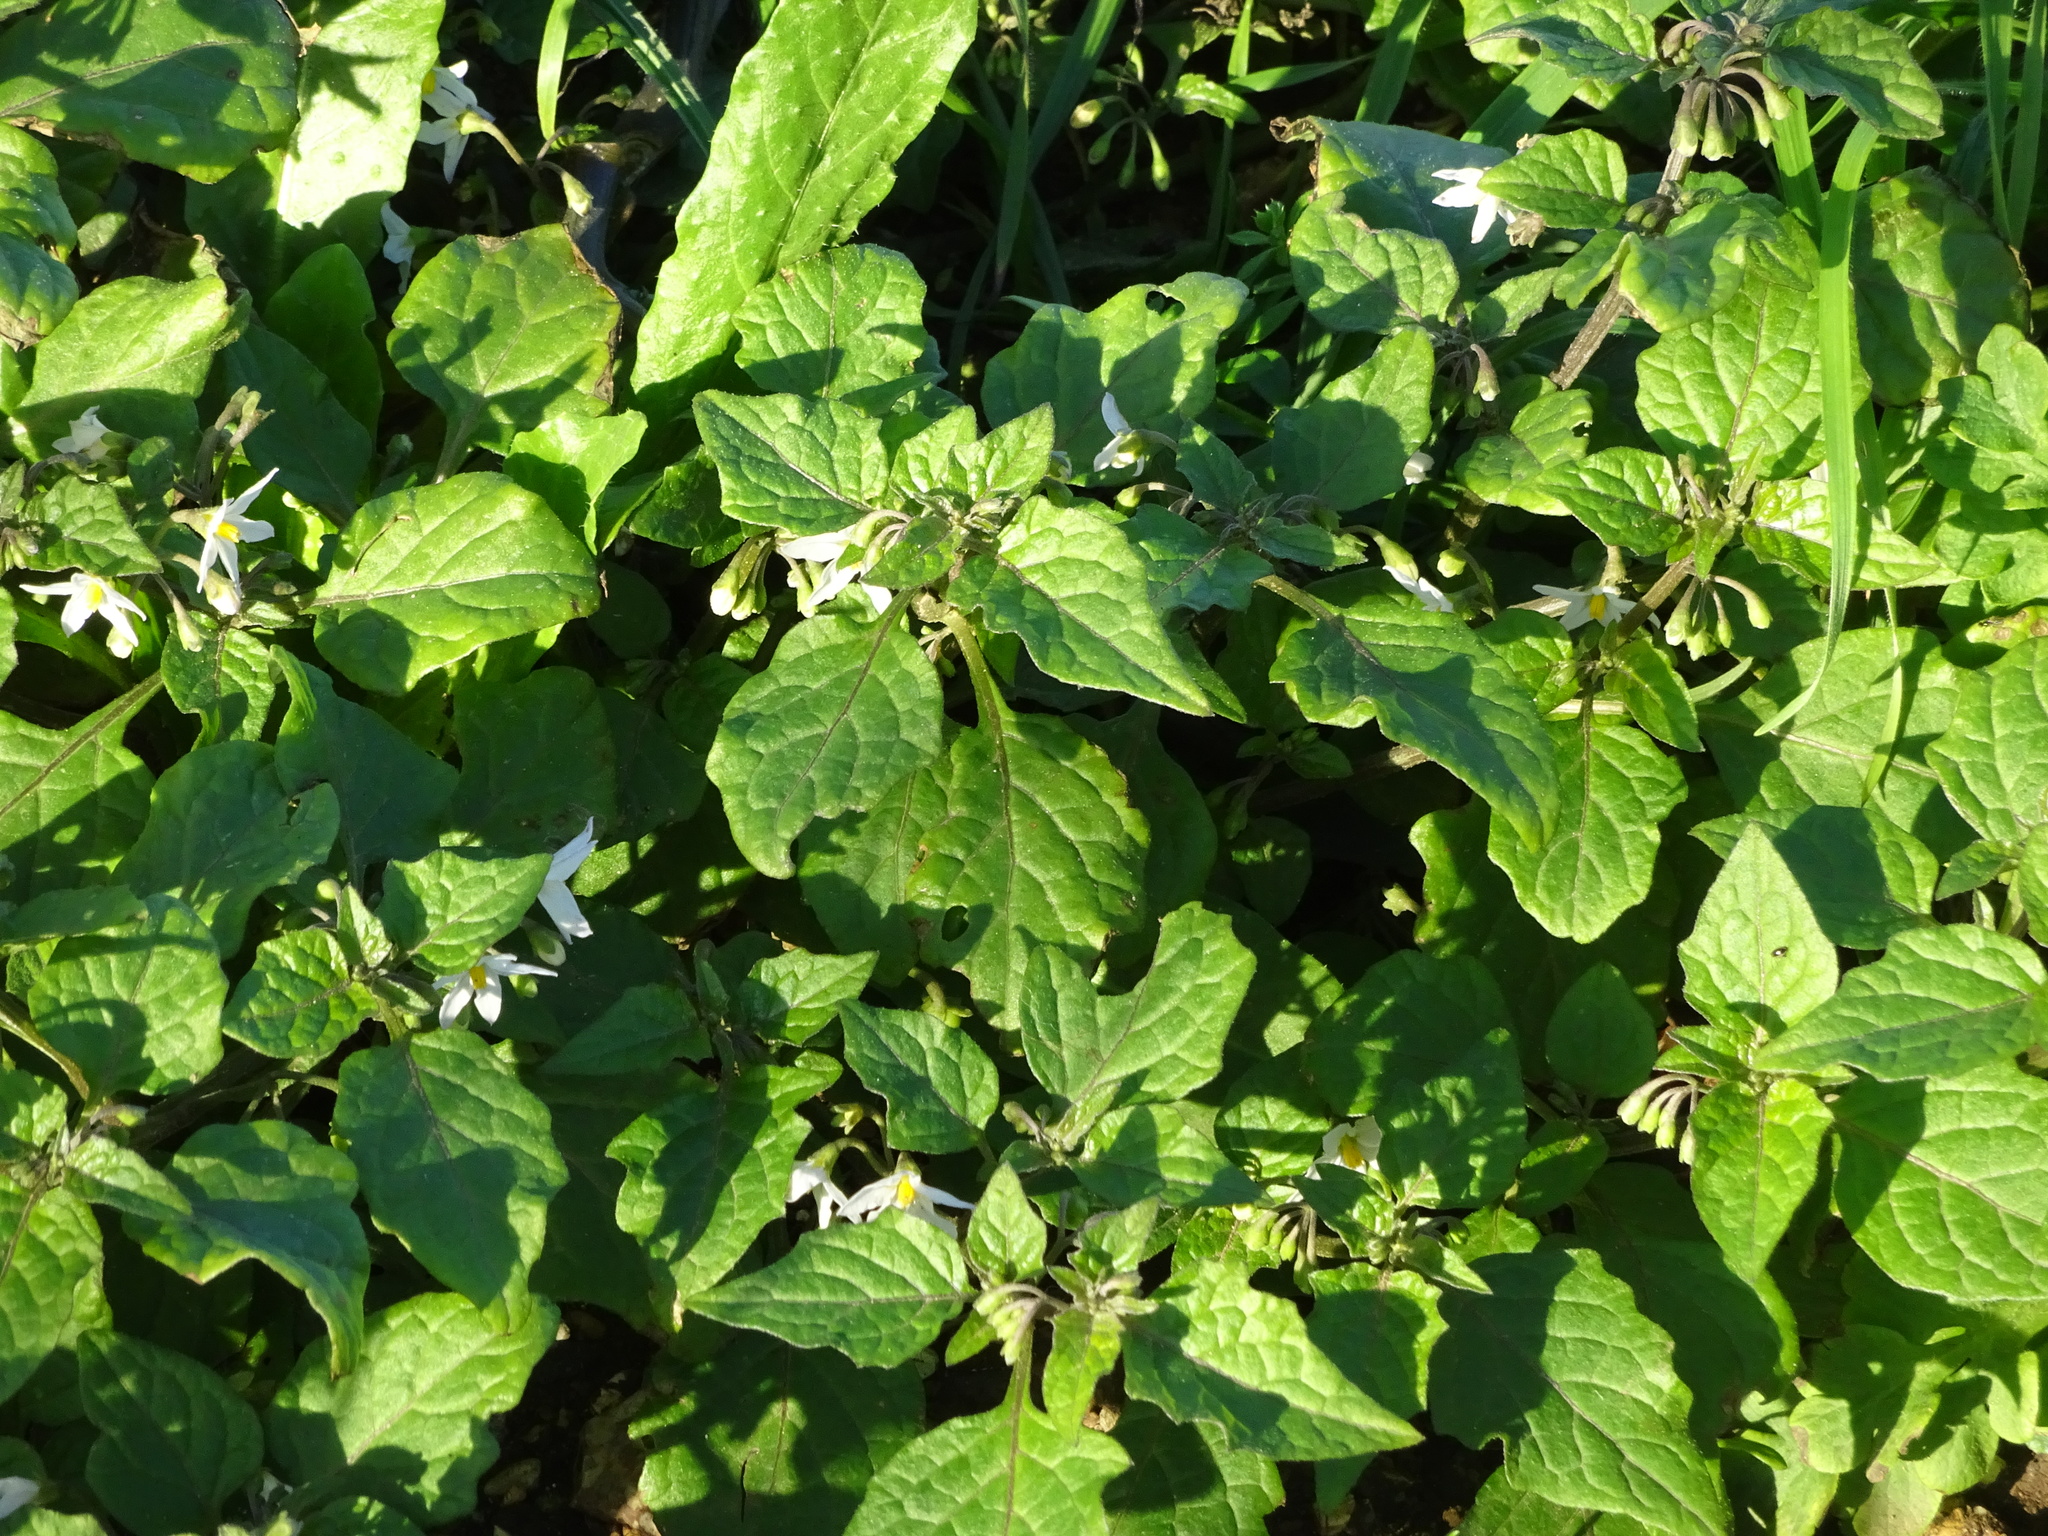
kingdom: Plantae
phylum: Tracheophyta
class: Magnoliopsida
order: Solanales
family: Solanaceae
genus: Solanum
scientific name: Solanum nigrum
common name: Black nightshade
